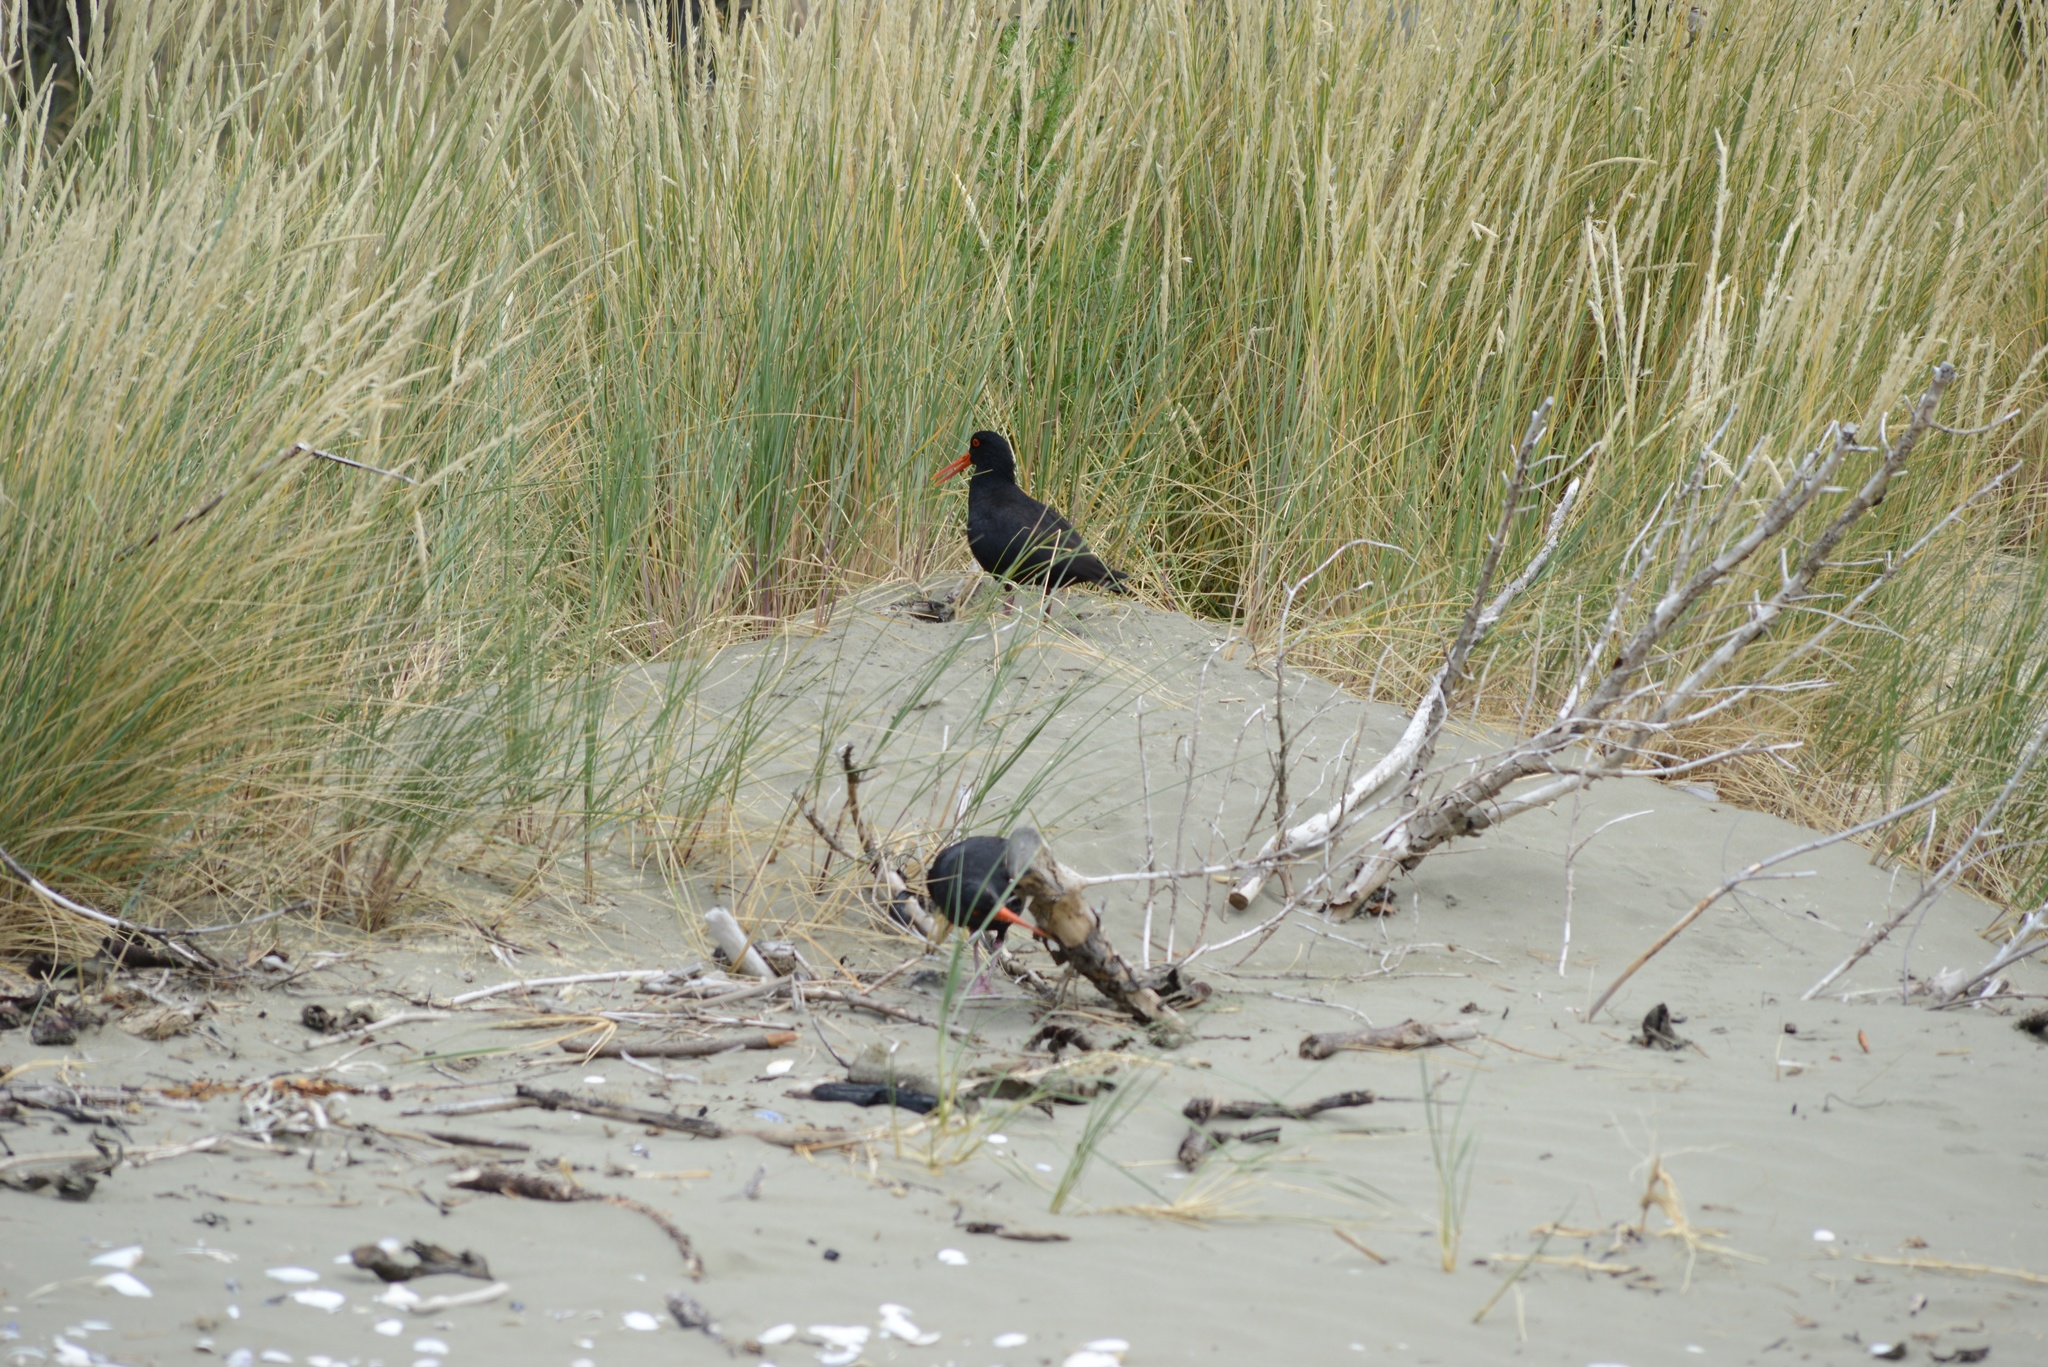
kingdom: Animalia
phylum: Chordata
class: Aves
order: Charadriiformes
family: Haematopodidae
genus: Haematopus
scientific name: Haematopus unicolor
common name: Variable oystercatcher
